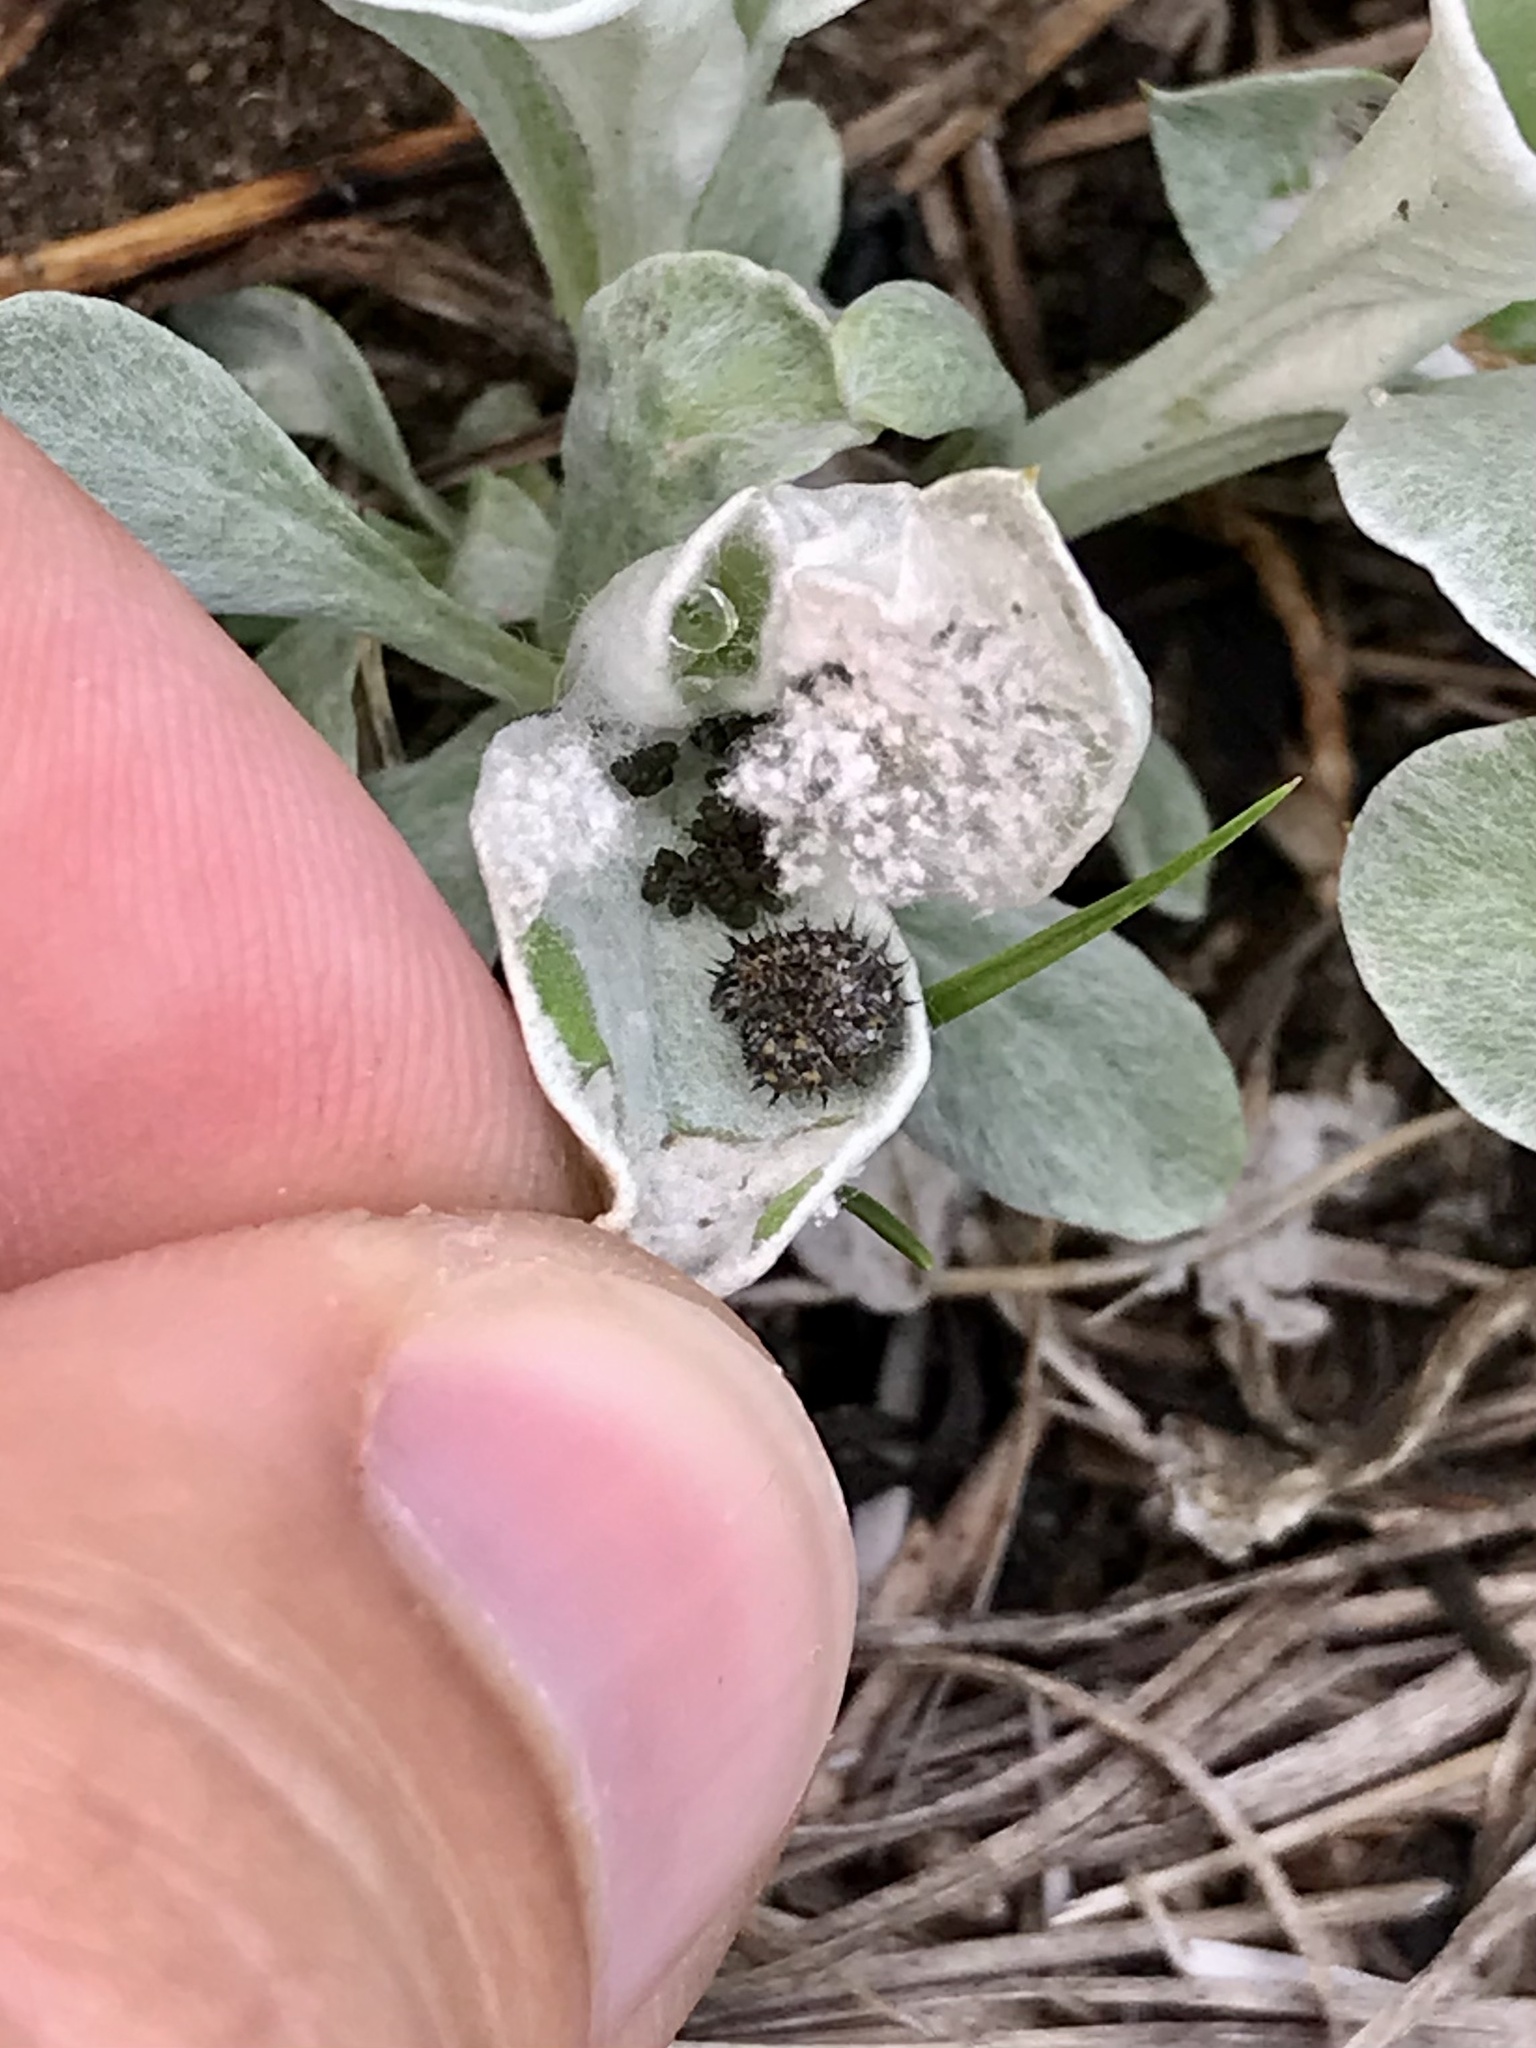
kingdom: Animalia
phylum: Arthropoda
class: Insecta
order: Lepidoptera
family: Nymphalidae
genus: Vanessa
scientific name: Vanessa virginiensis
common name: American lady
